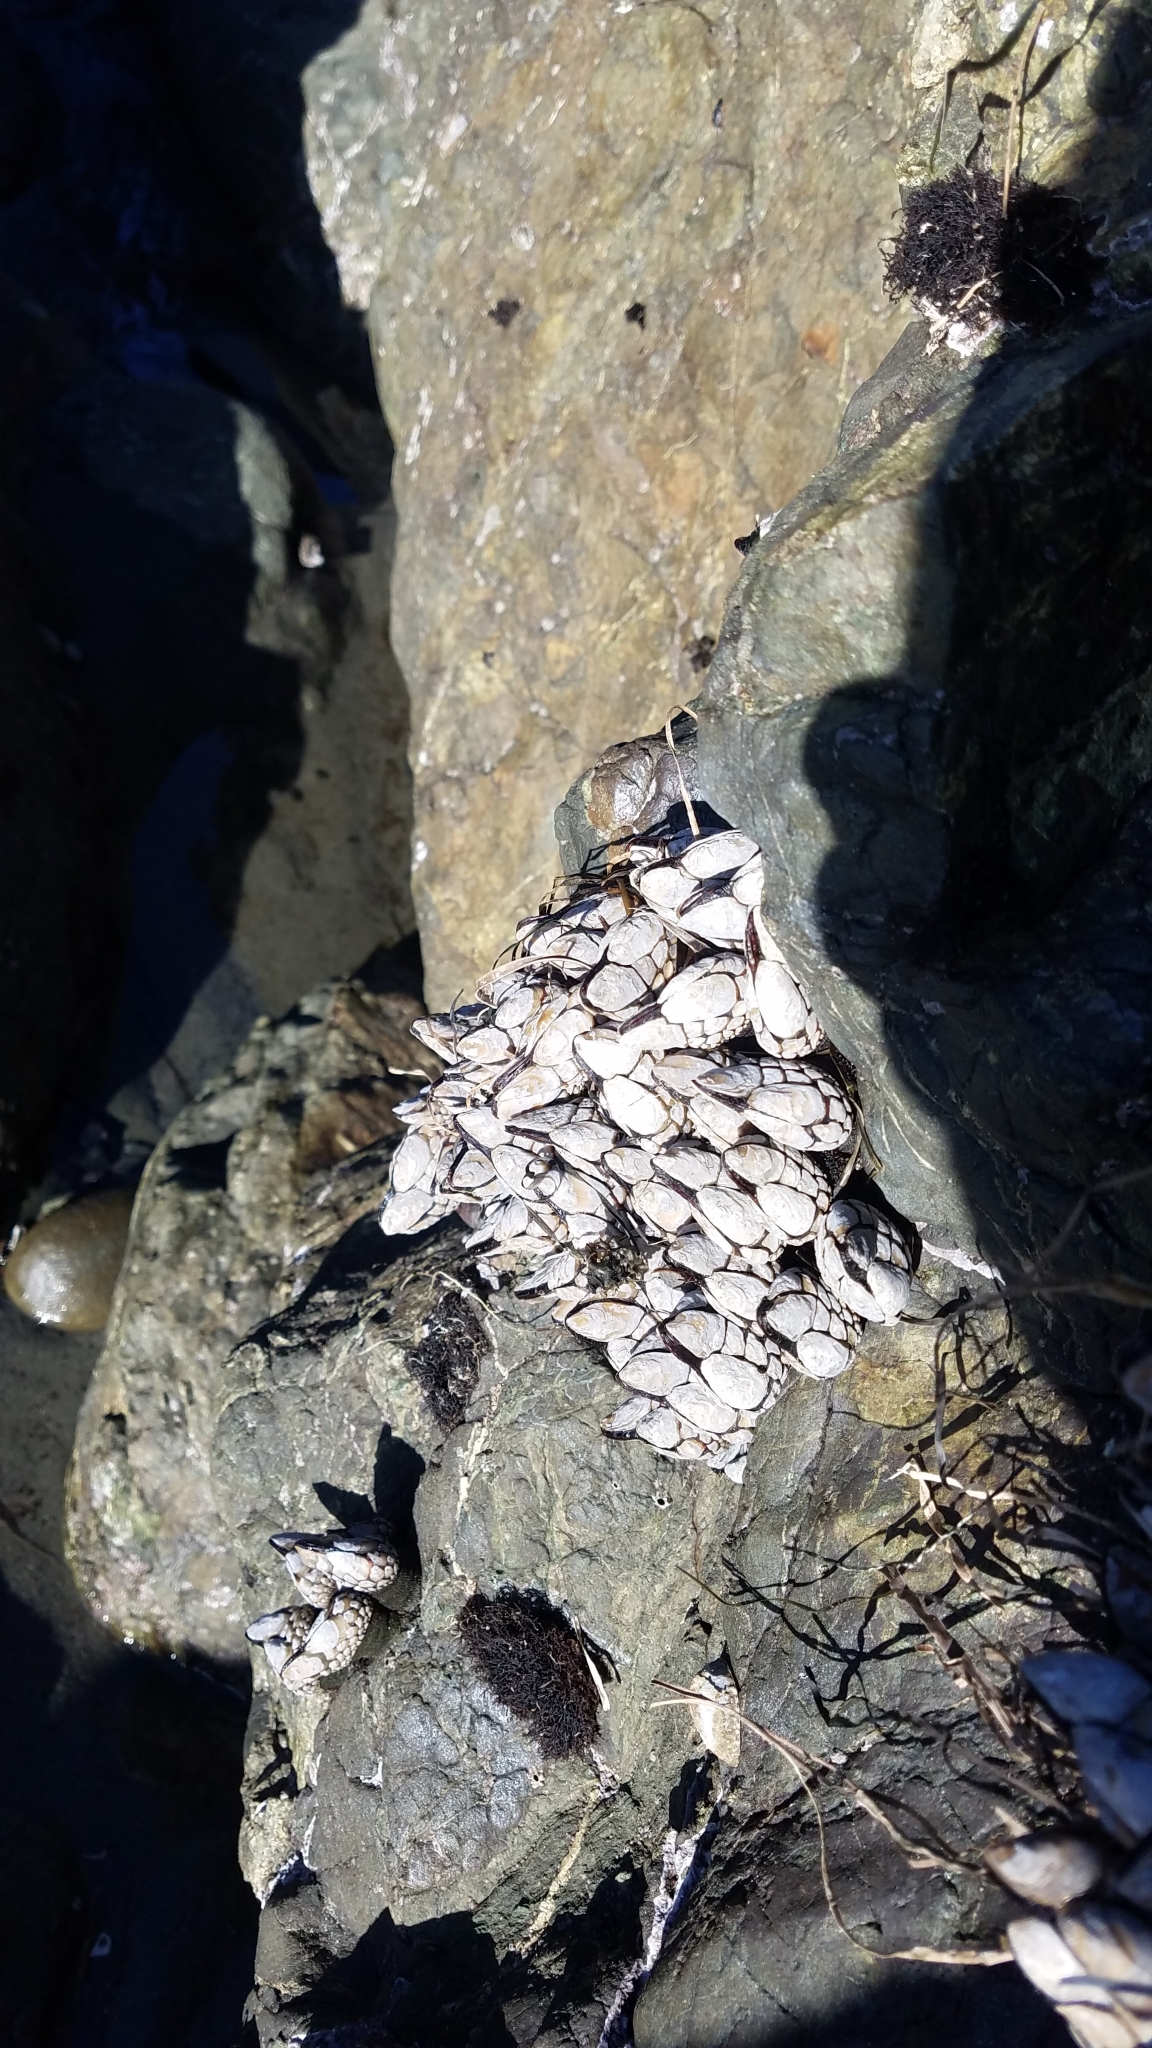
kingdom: Animalia
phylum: Arthropoda
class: Maxillopoda
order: Pedunculata
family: Pollicipedidae
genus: Pollicipes
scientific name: Pollicipes polymerus
